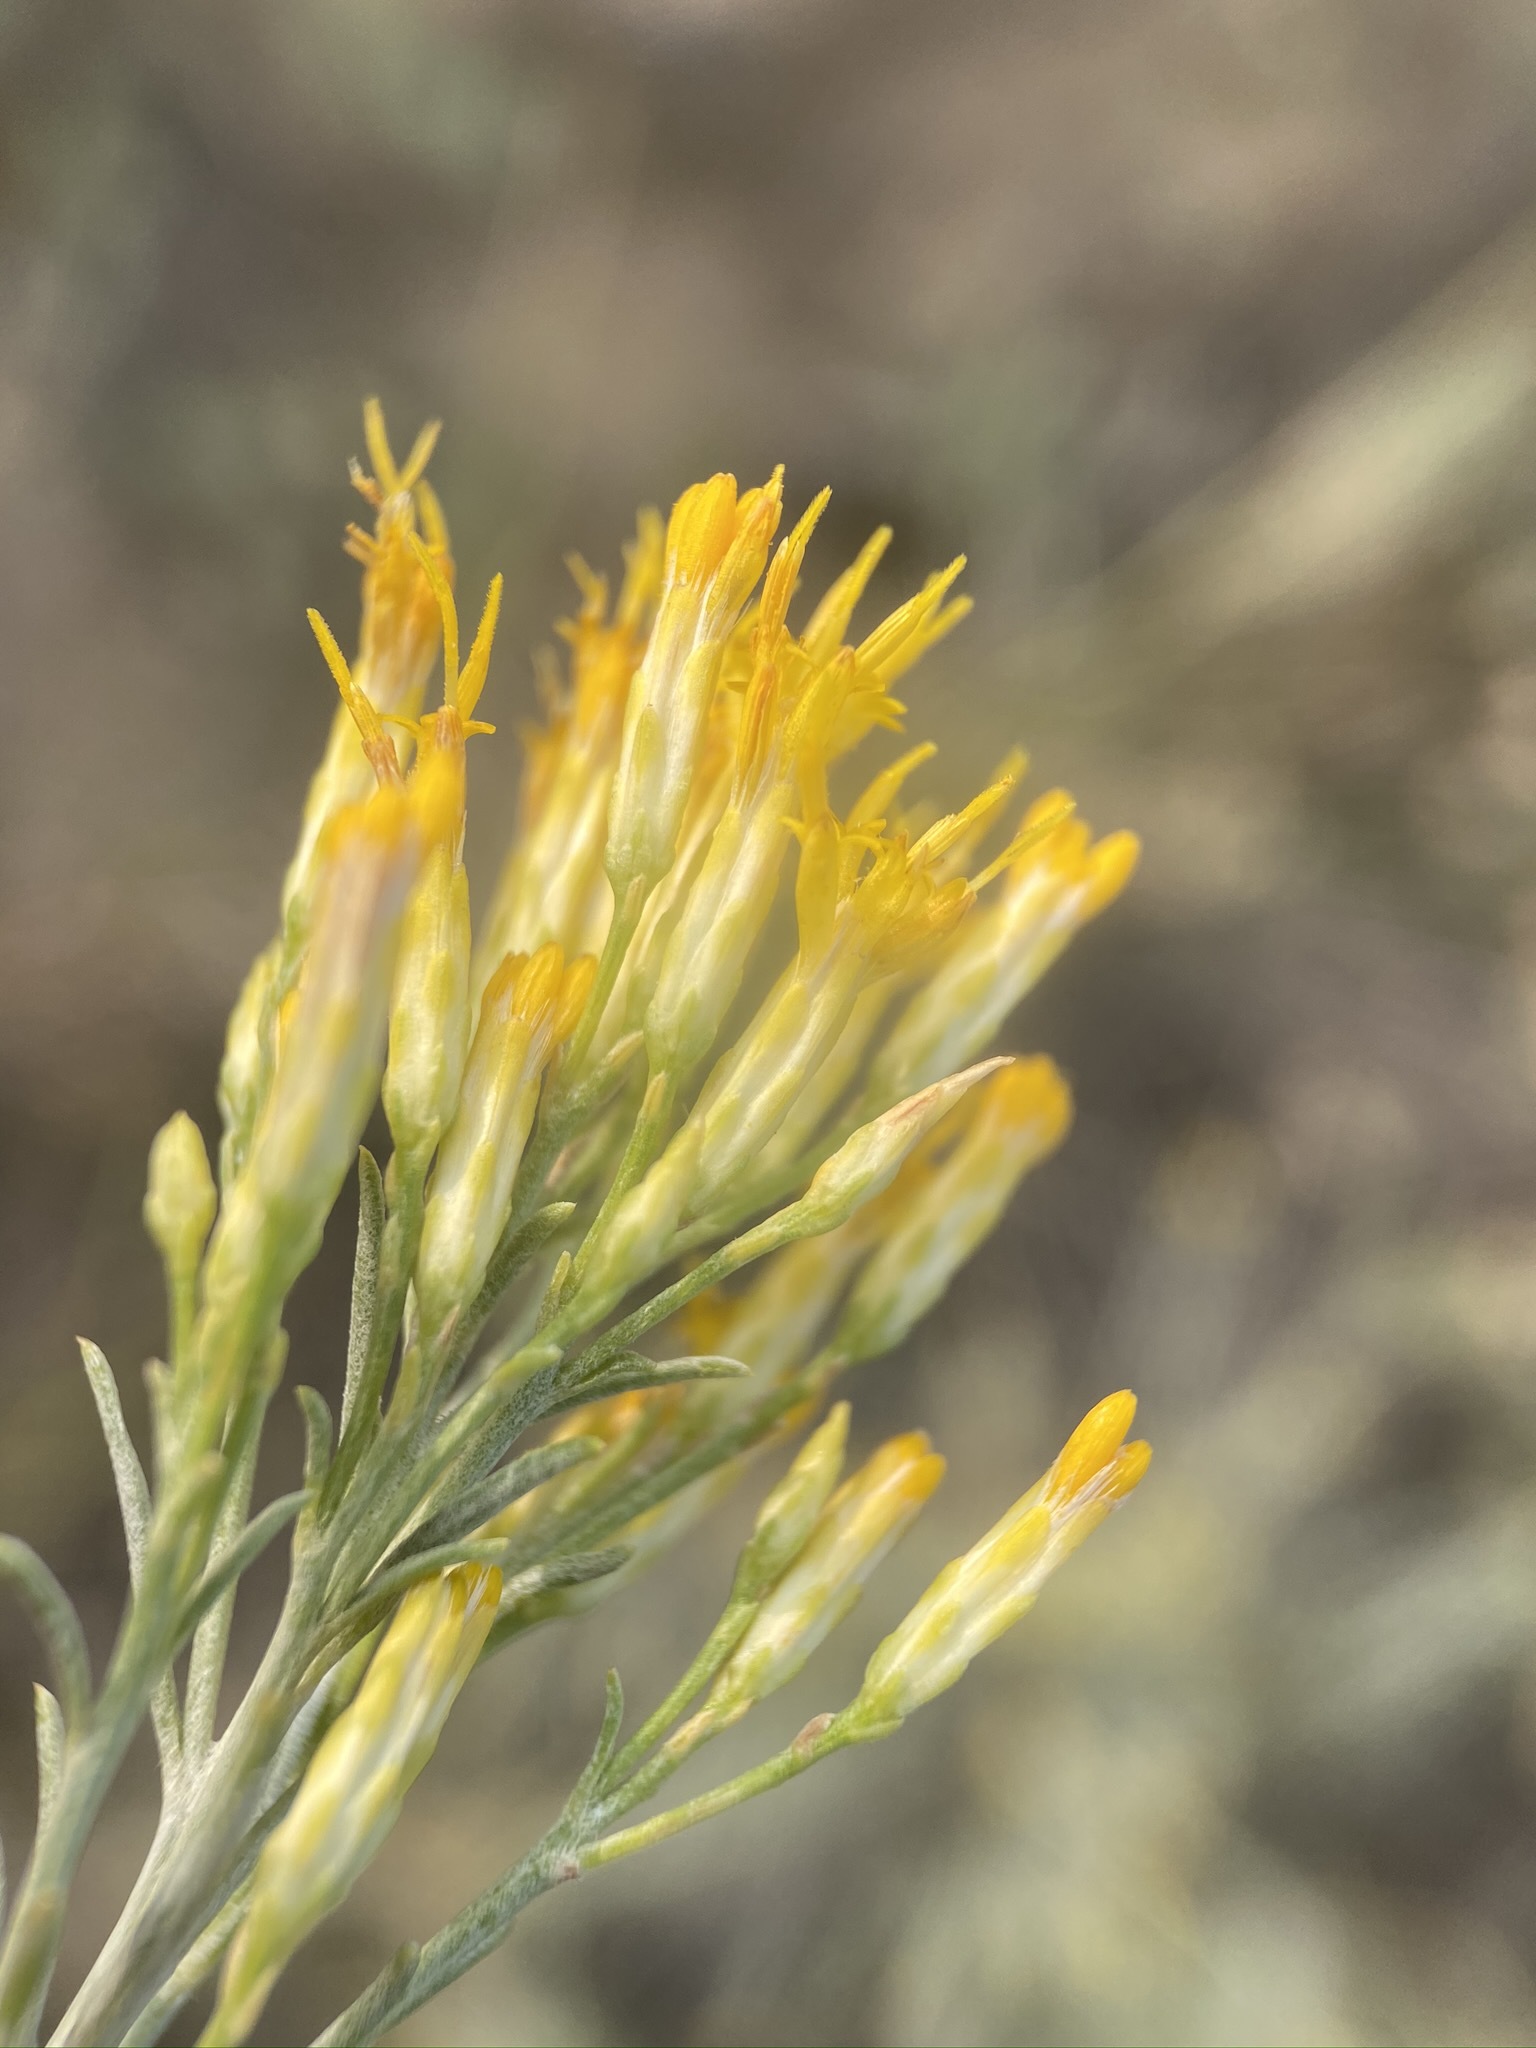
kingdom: Plantae
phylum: Tracheophyta
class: Magnoliopsida
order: Asterales
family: Asteraceae
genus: Ericameria
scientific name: Ericameria nauseosa
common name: Rubber rabbitbrush
